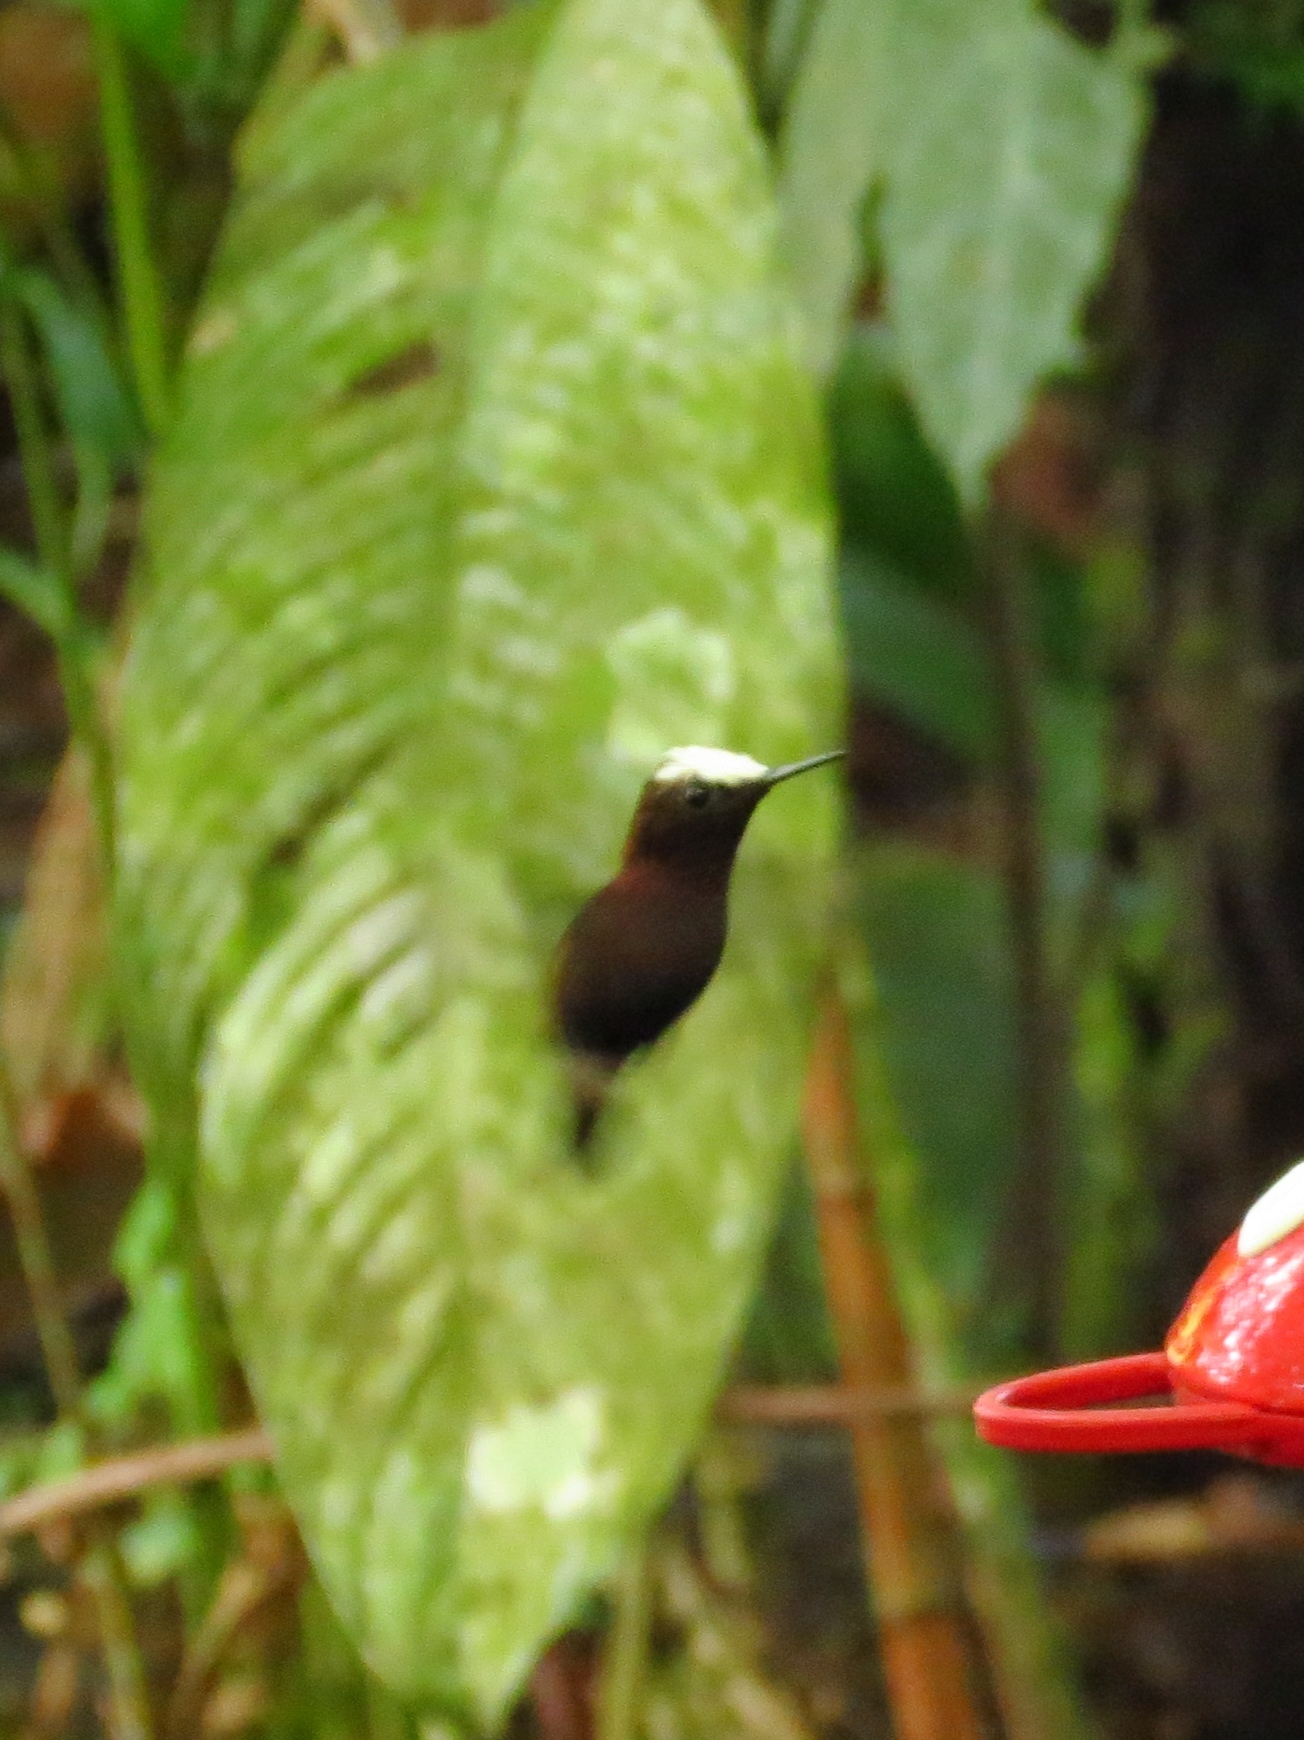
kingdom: Animalia
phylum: Chordata
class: Aves
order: Apodiformes
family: Trochilidae
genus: Microchera
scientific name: Microchera albocoronata
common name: Snowcap
